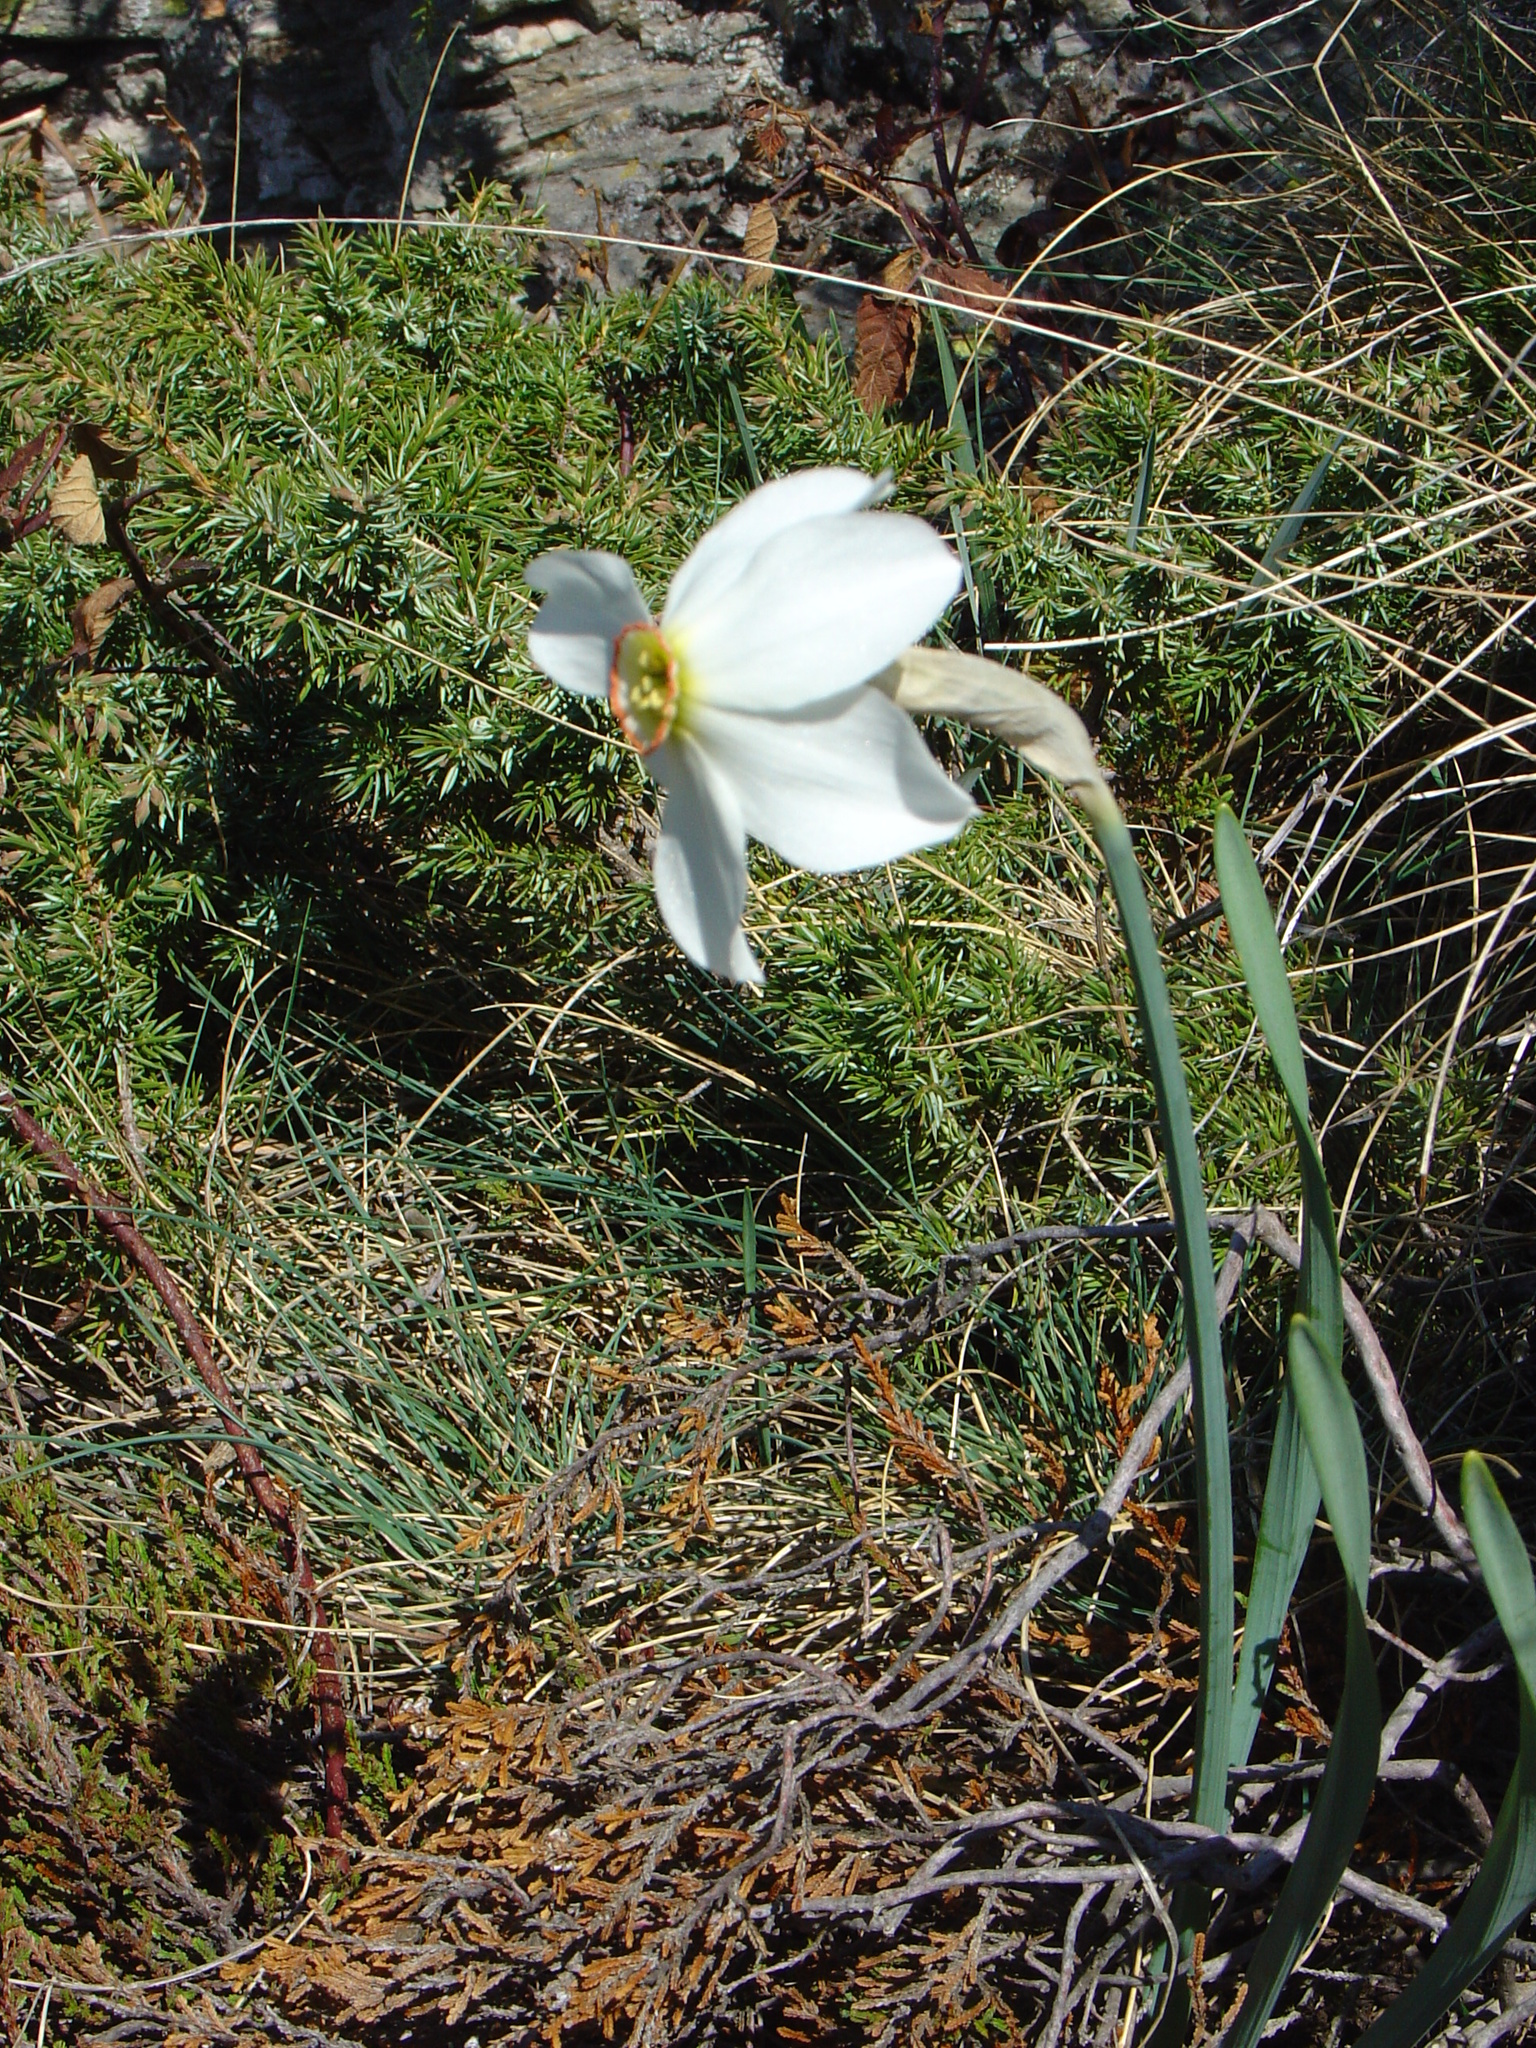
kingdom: Plantae
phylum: Tracheophyta
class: Liliopsida
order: Asparagales
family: Amaryllidaceae
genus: Narcissus
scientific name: Narcissus poeticus
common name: Pheasant's-eye daffodil
